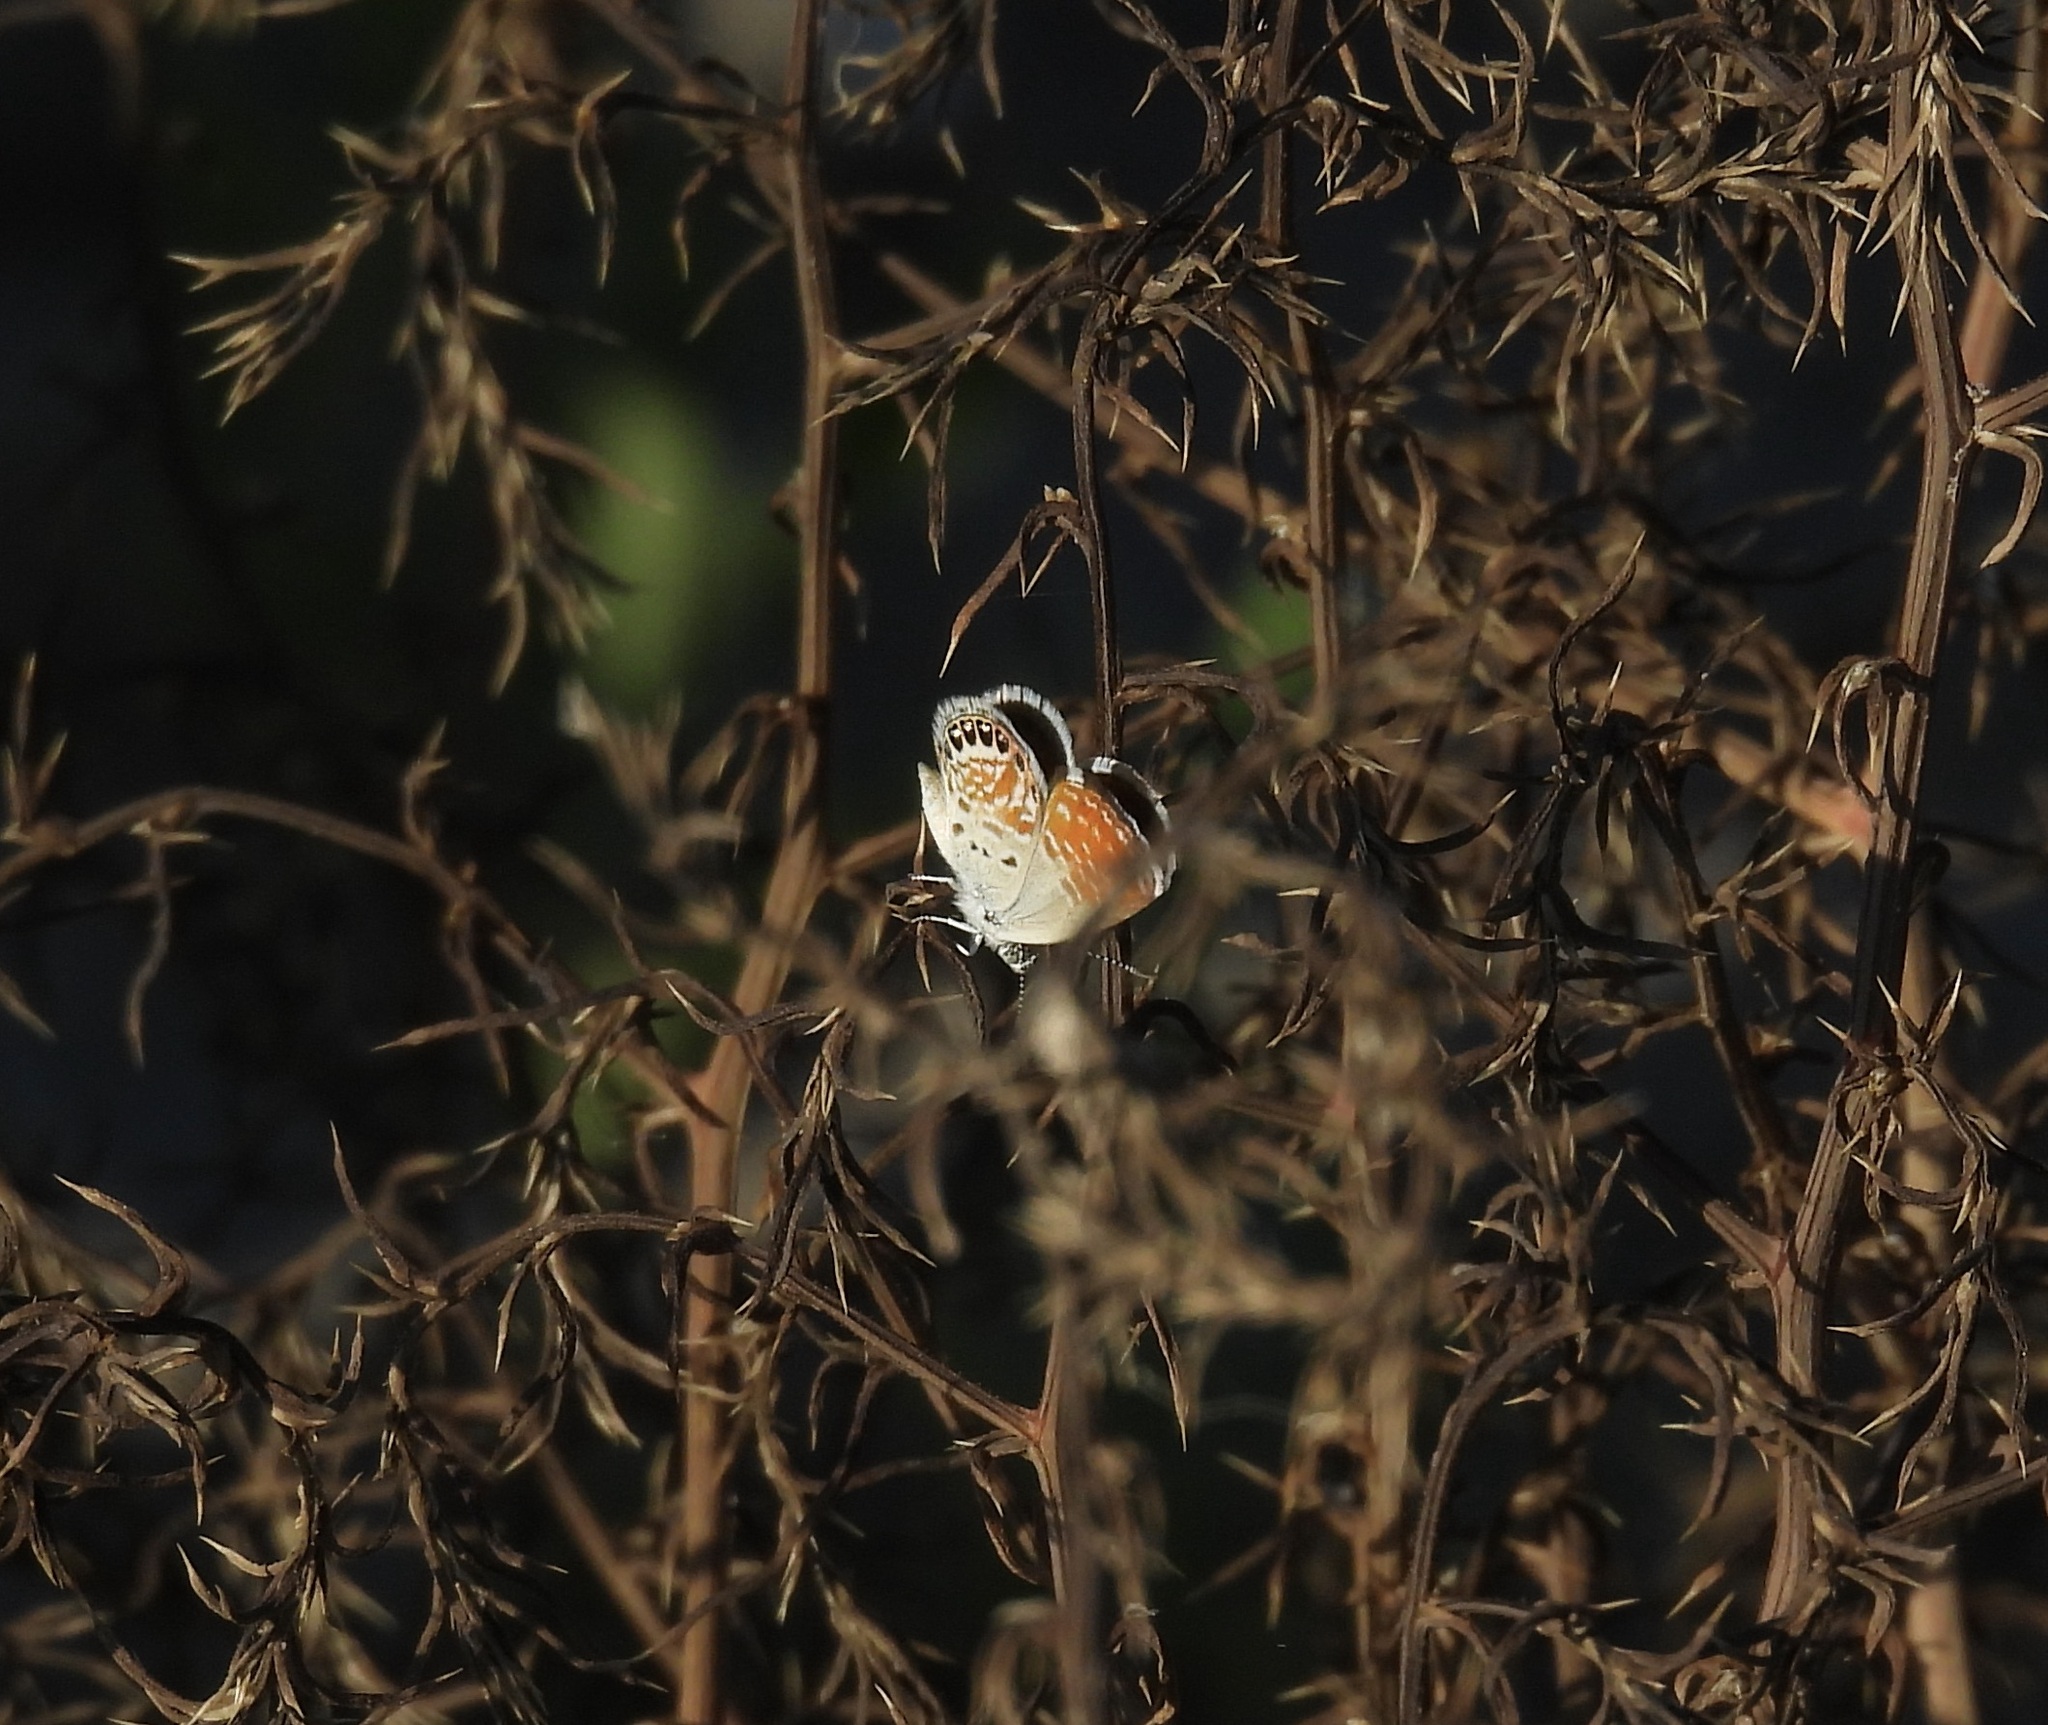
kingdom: Animalia
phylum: Arthropoda
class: Insecta
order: Lepidoptera
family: Lycaenidae
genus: Brephidium
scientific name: Brephidium exilis
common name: Pygmy blue
